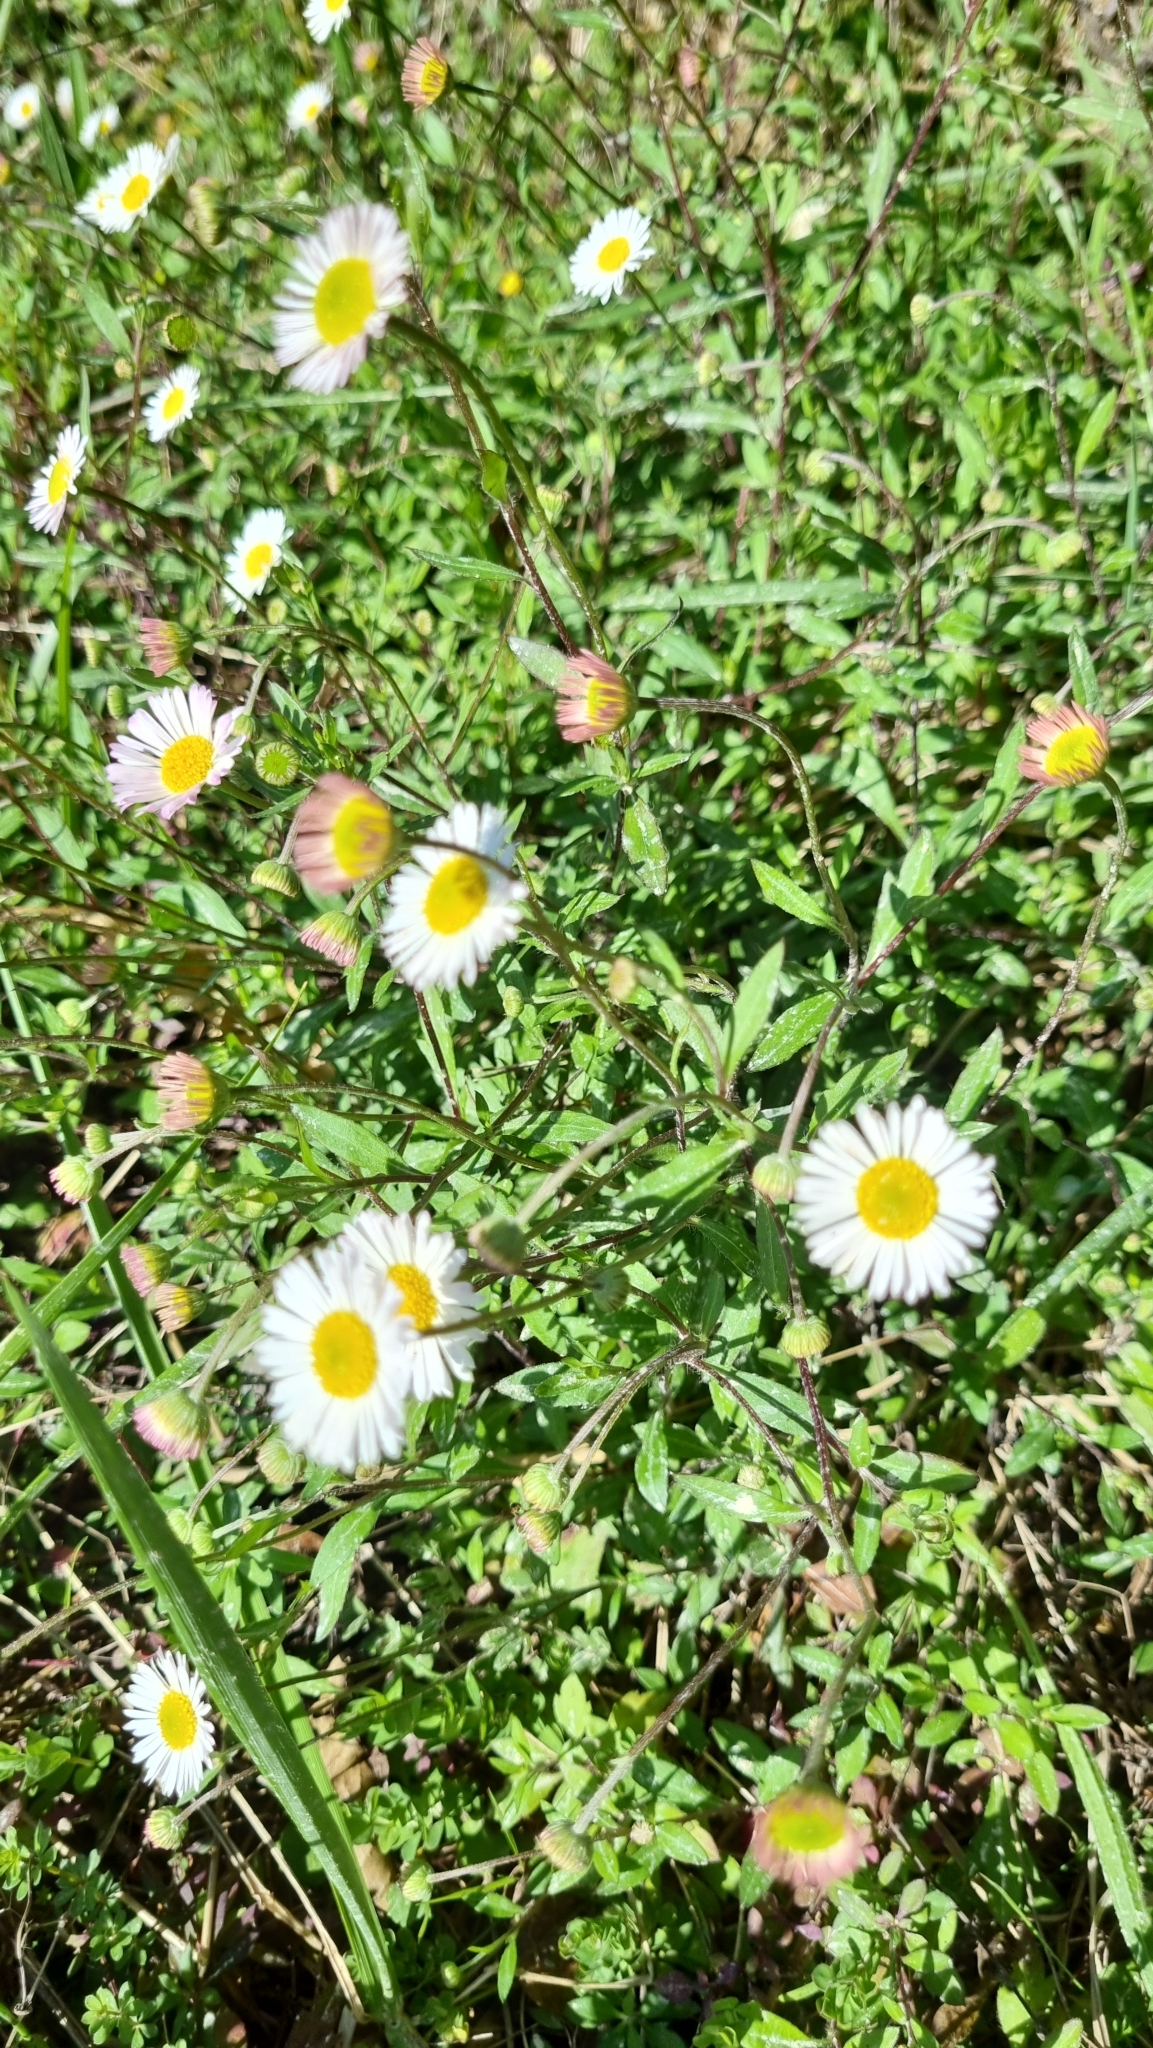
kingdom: Plantae
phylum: Tracheophyta
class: Magnoliopsida
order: Asterales
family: Asteraceae
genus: Erigeron
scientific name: Erigeron karvinskianus
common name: Mexican fleabane
